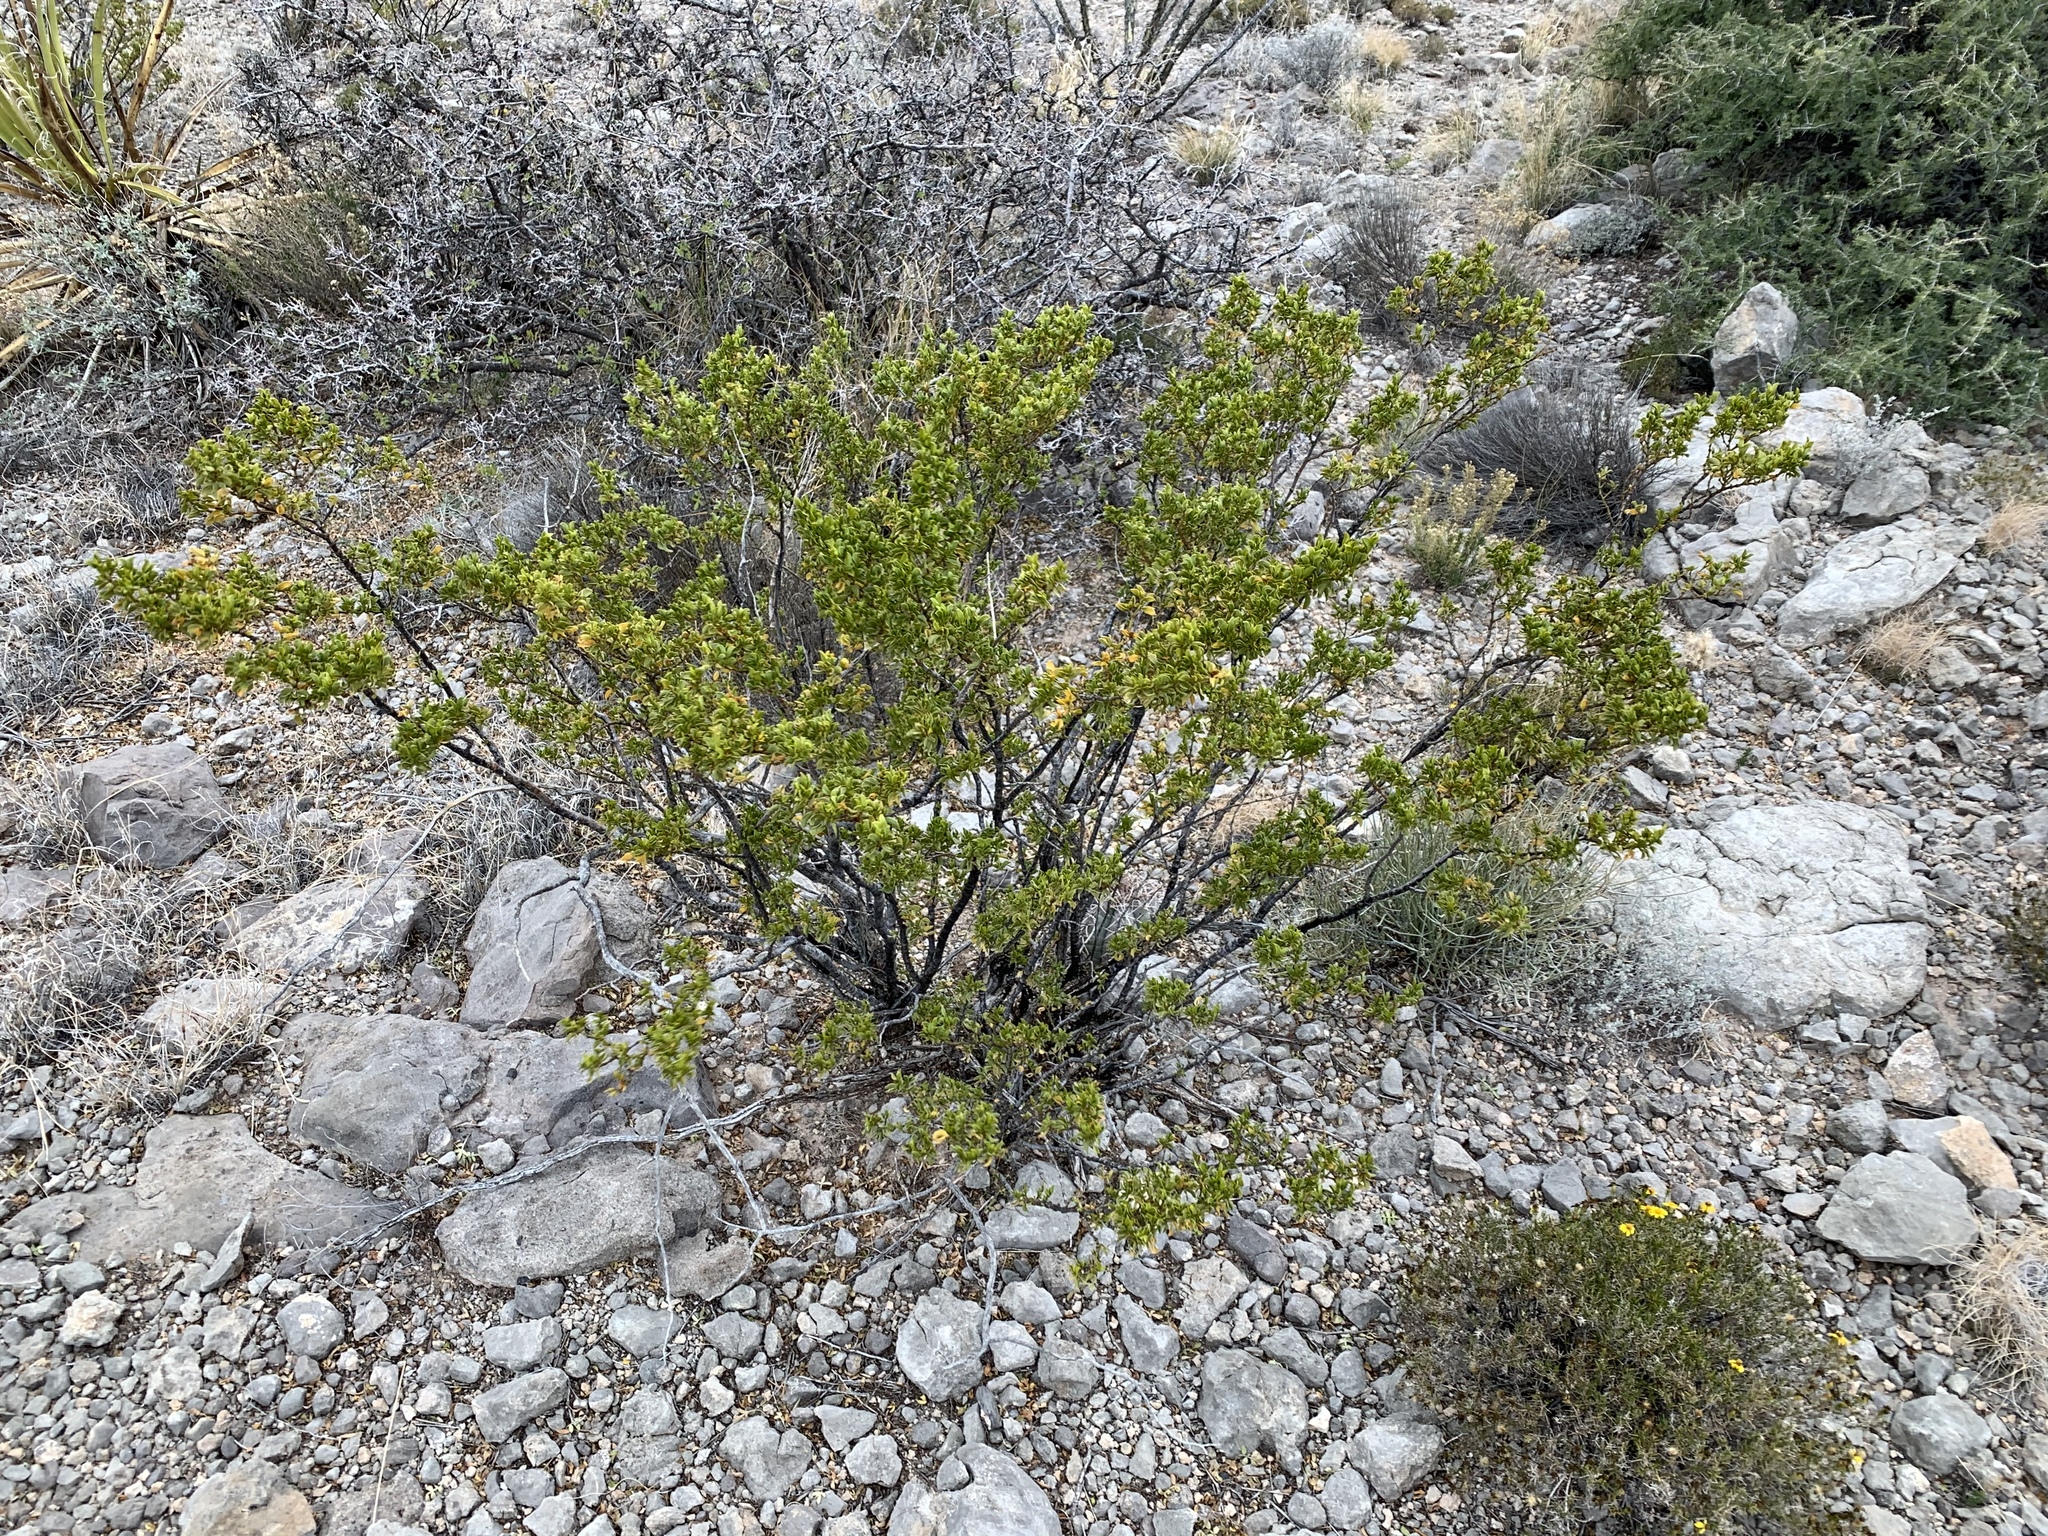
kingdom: Plantae
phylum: Tracheophyta
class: Magnoliopsida
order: Zygophyllales
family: Zygophyllaceae
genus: Larrea
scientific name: Larrea tridentata
